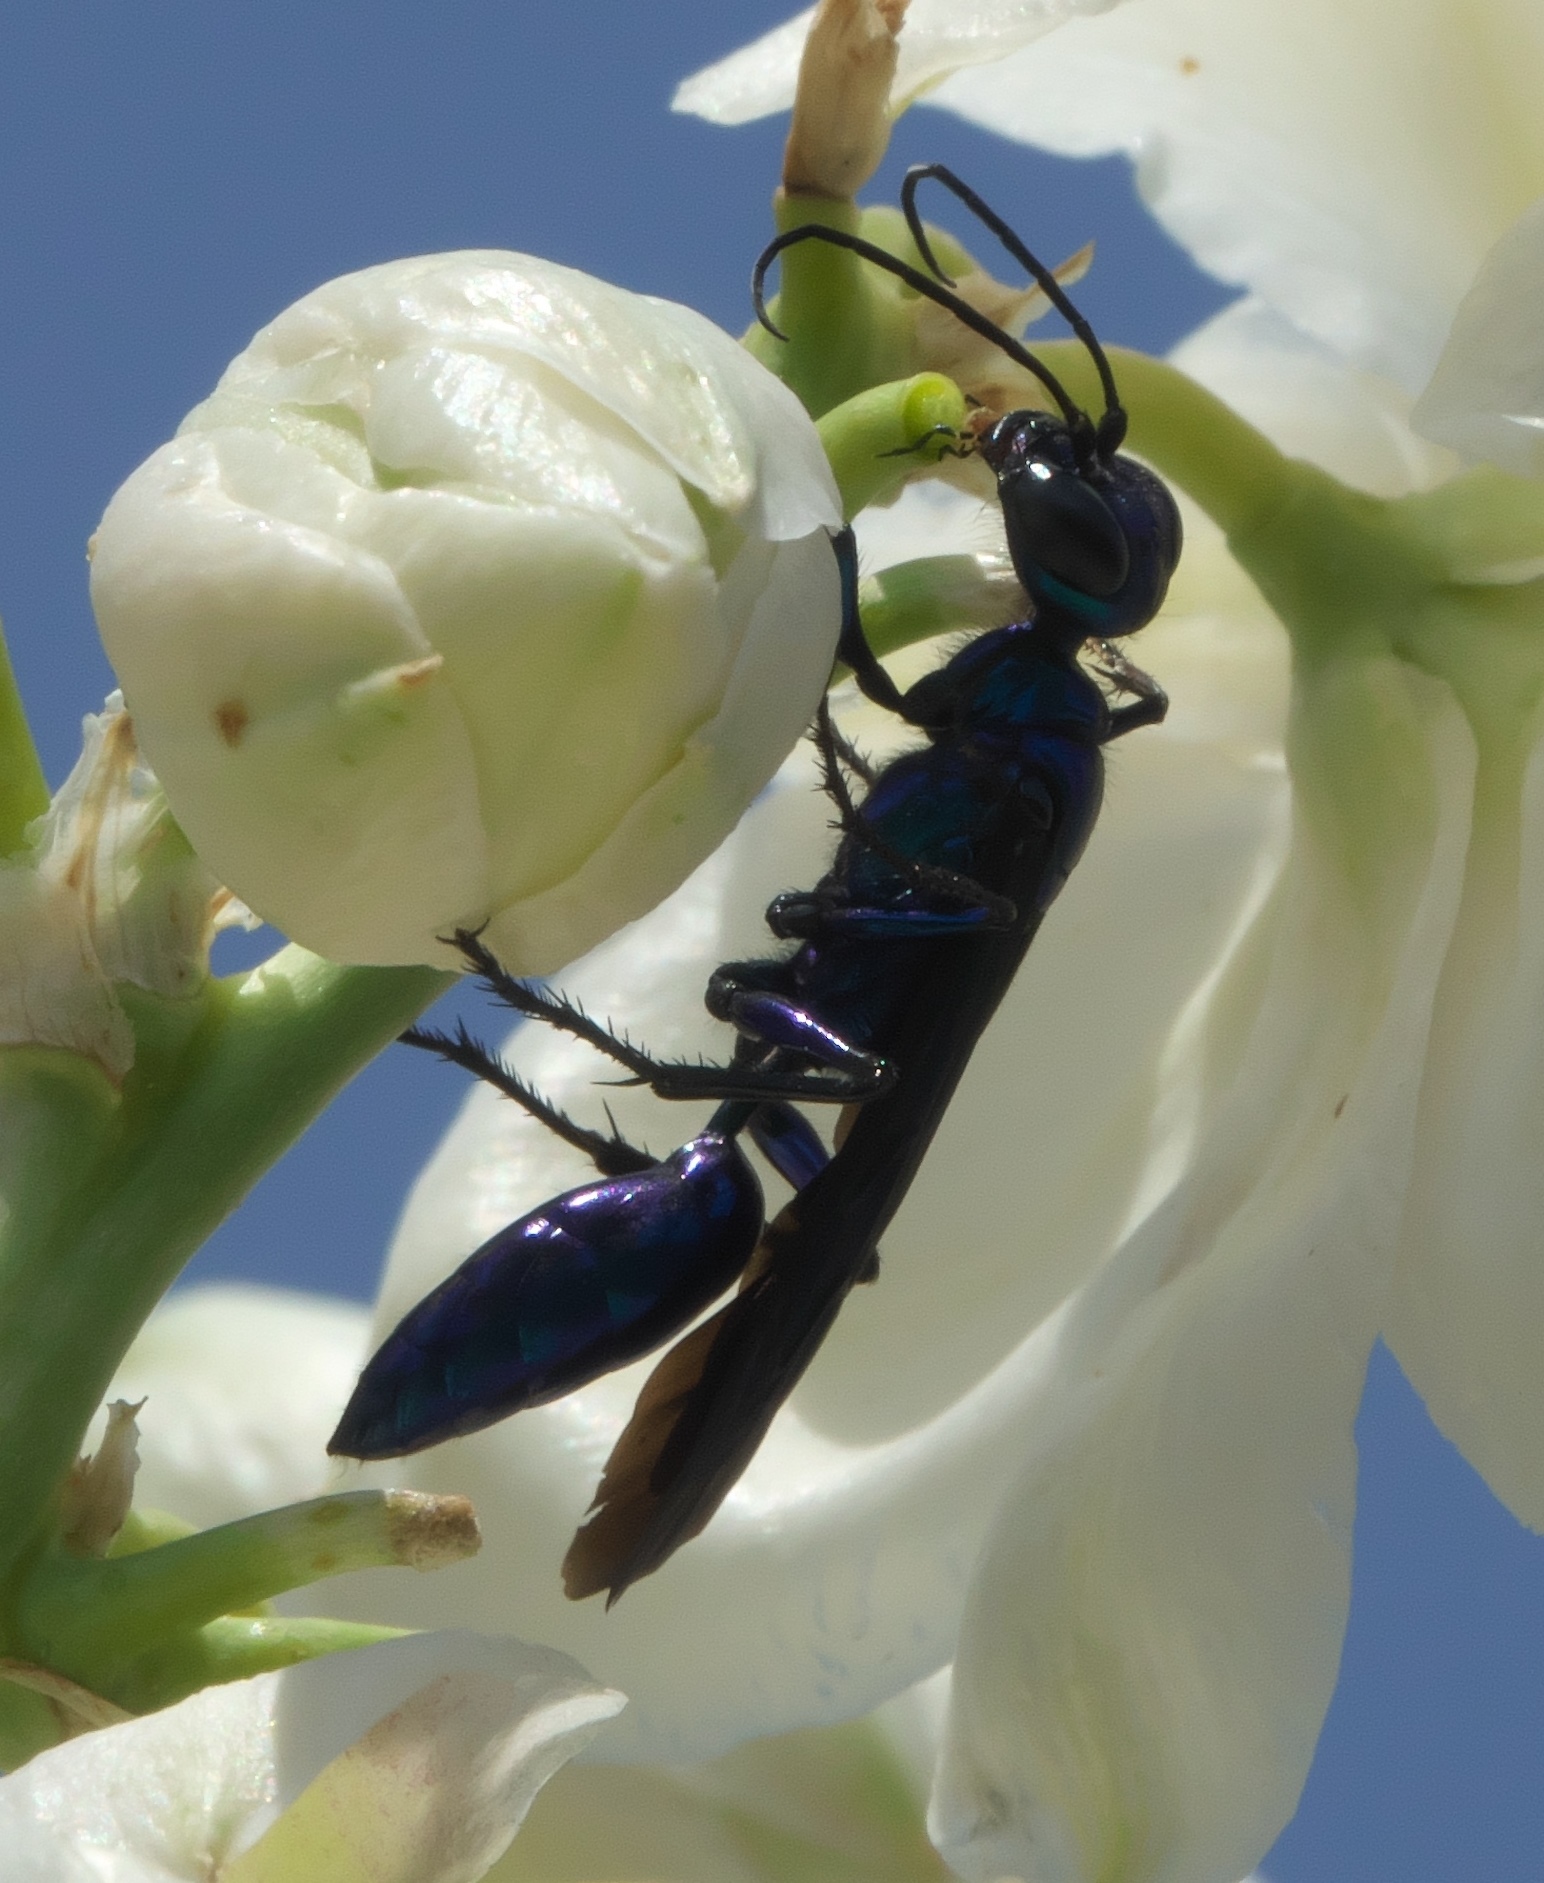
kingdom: Animalia
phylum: Arthropoda
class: Insecta
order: Hymenoptera
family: Sphecidae
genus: Chlorion
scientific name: Chlorion
